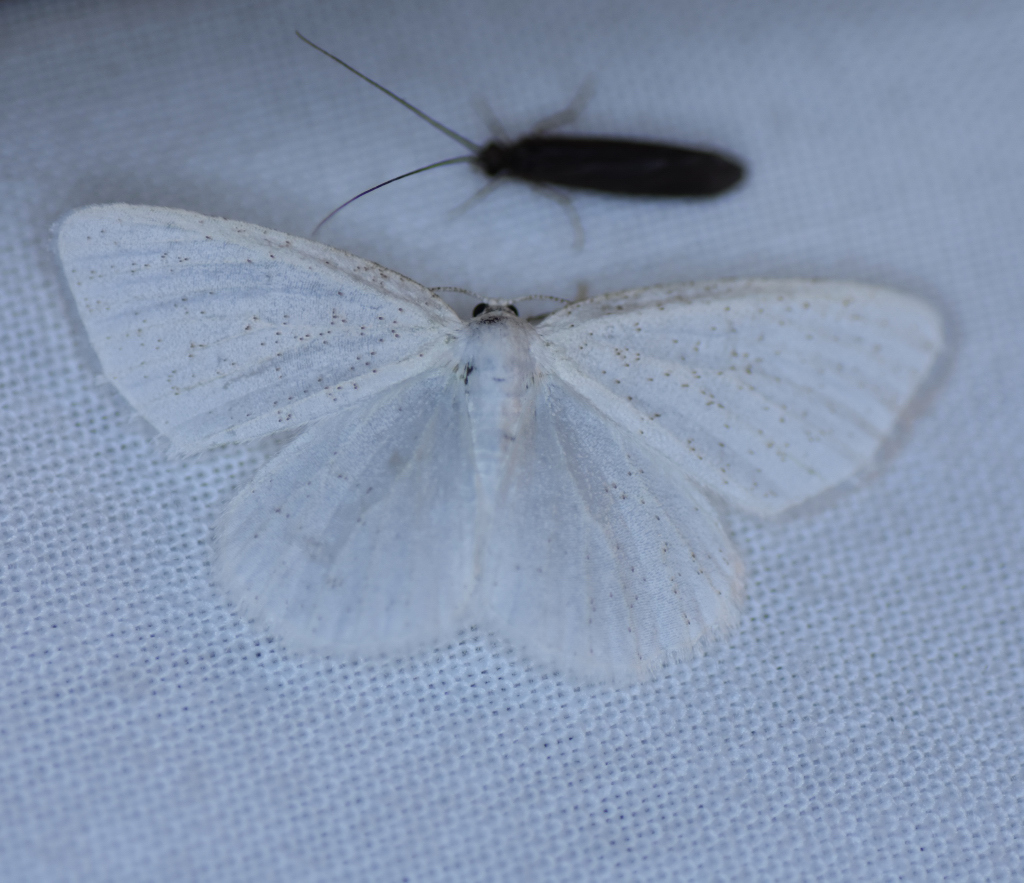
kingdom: Animalia
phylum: Arthropoda
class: Insecta
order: Lepidoptera
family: Geometridae
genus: Cabera
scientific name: Cabera variolaria
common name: Pink-striped willow spanworm
